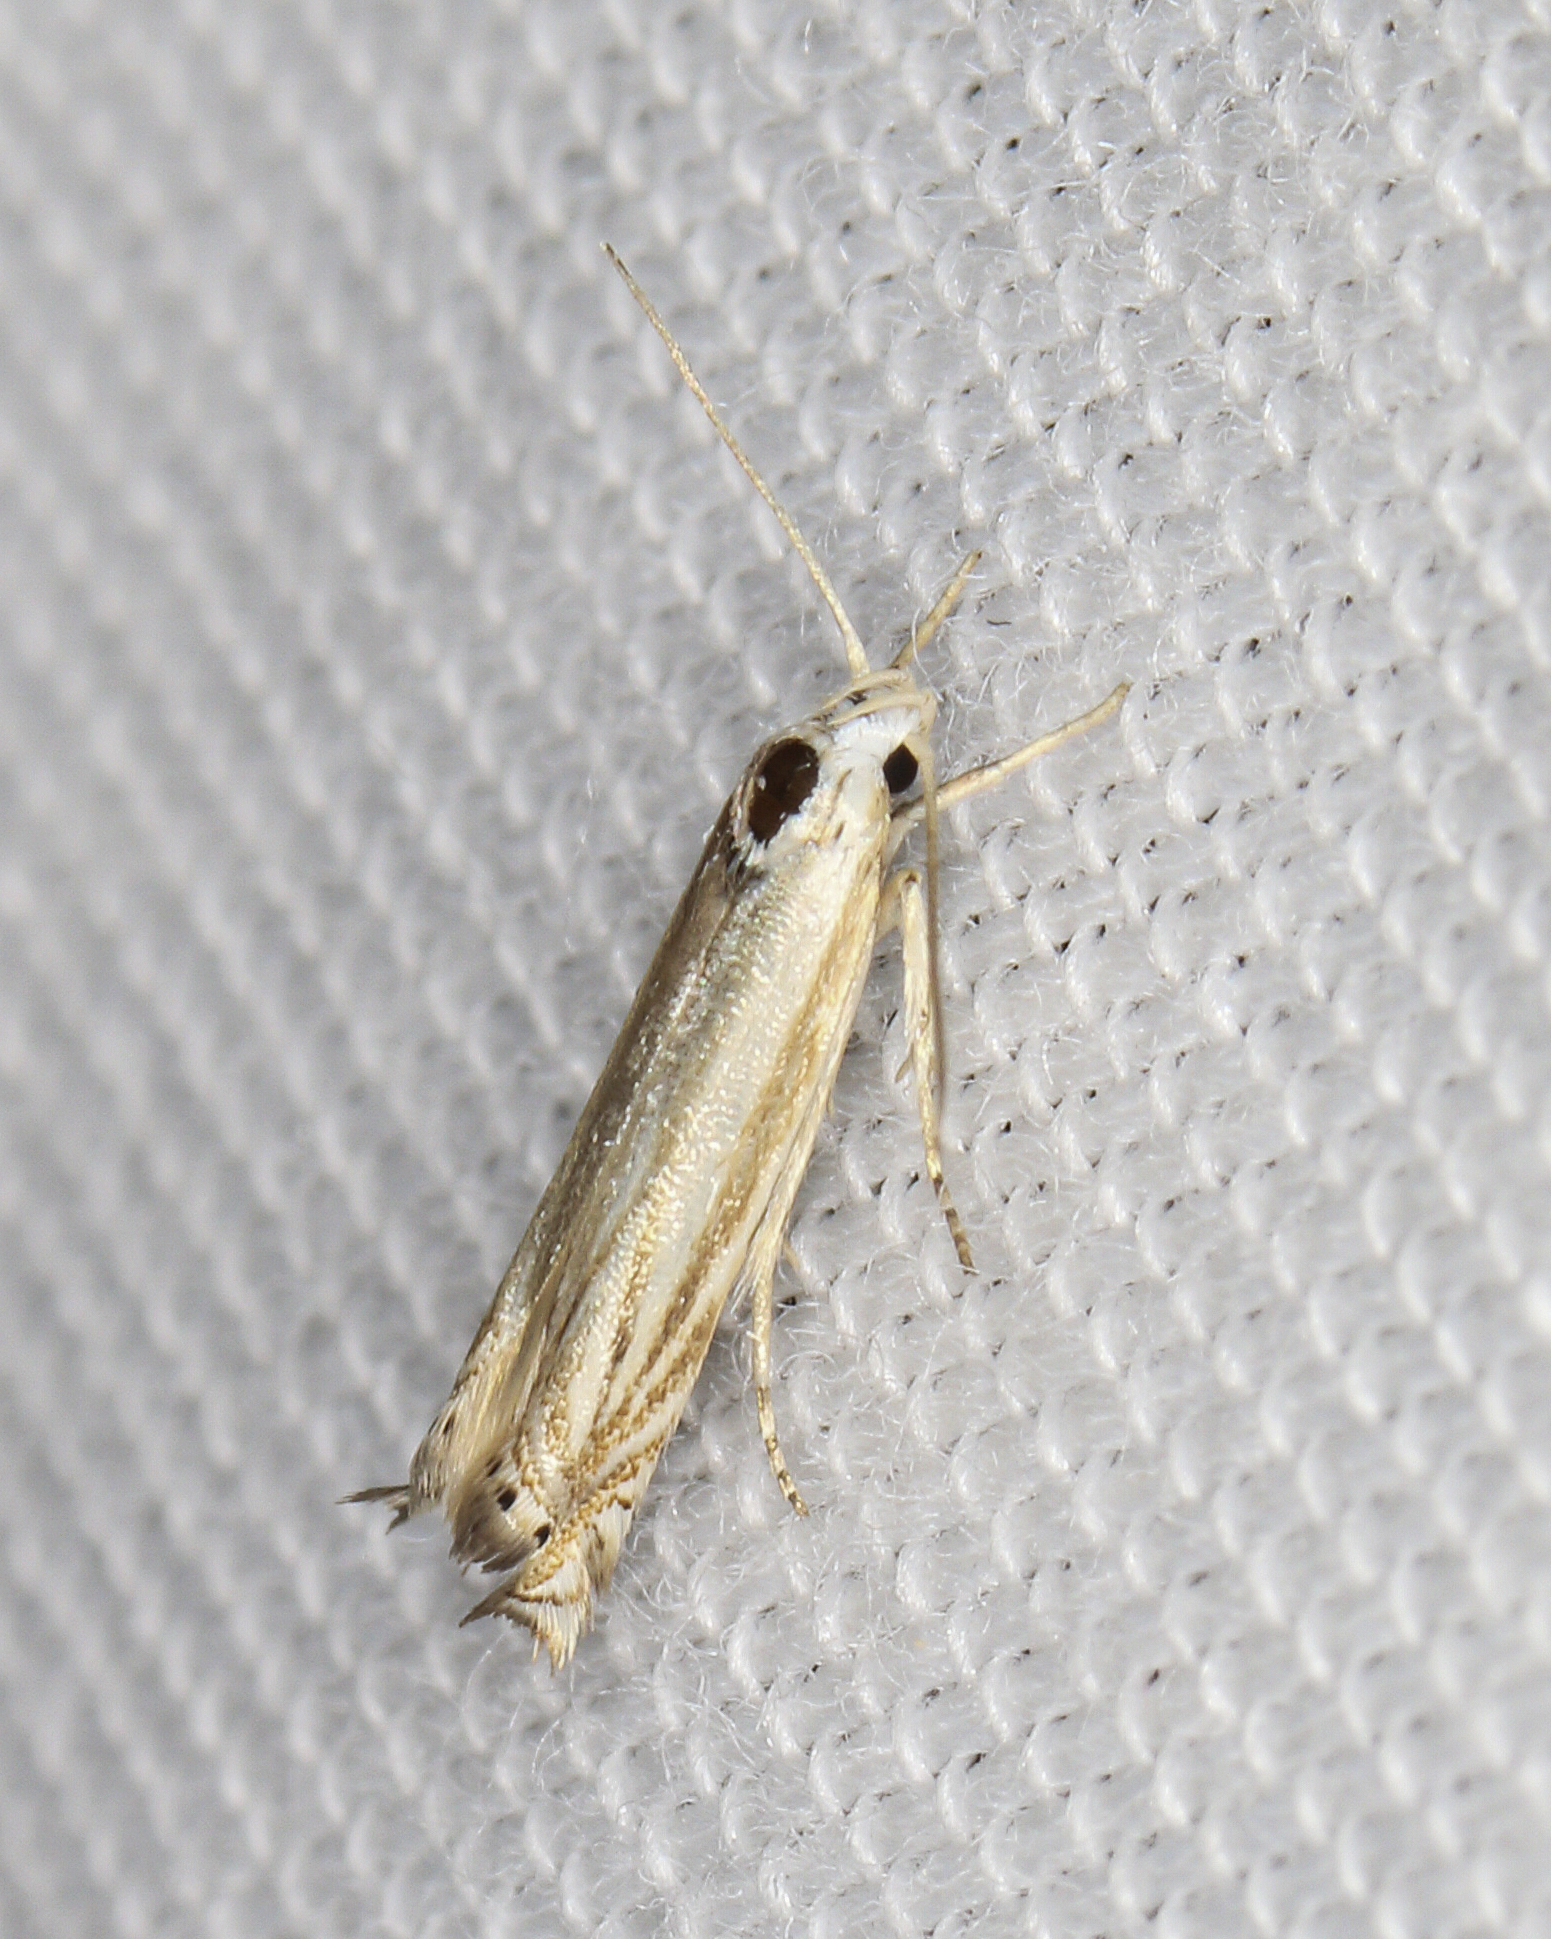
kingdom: Animalia
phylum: Arthropoda
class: Insecta
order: Lepidoptera
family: Gelechiidae
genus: Polyhymno
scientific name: Polyhymno luteostrigella
